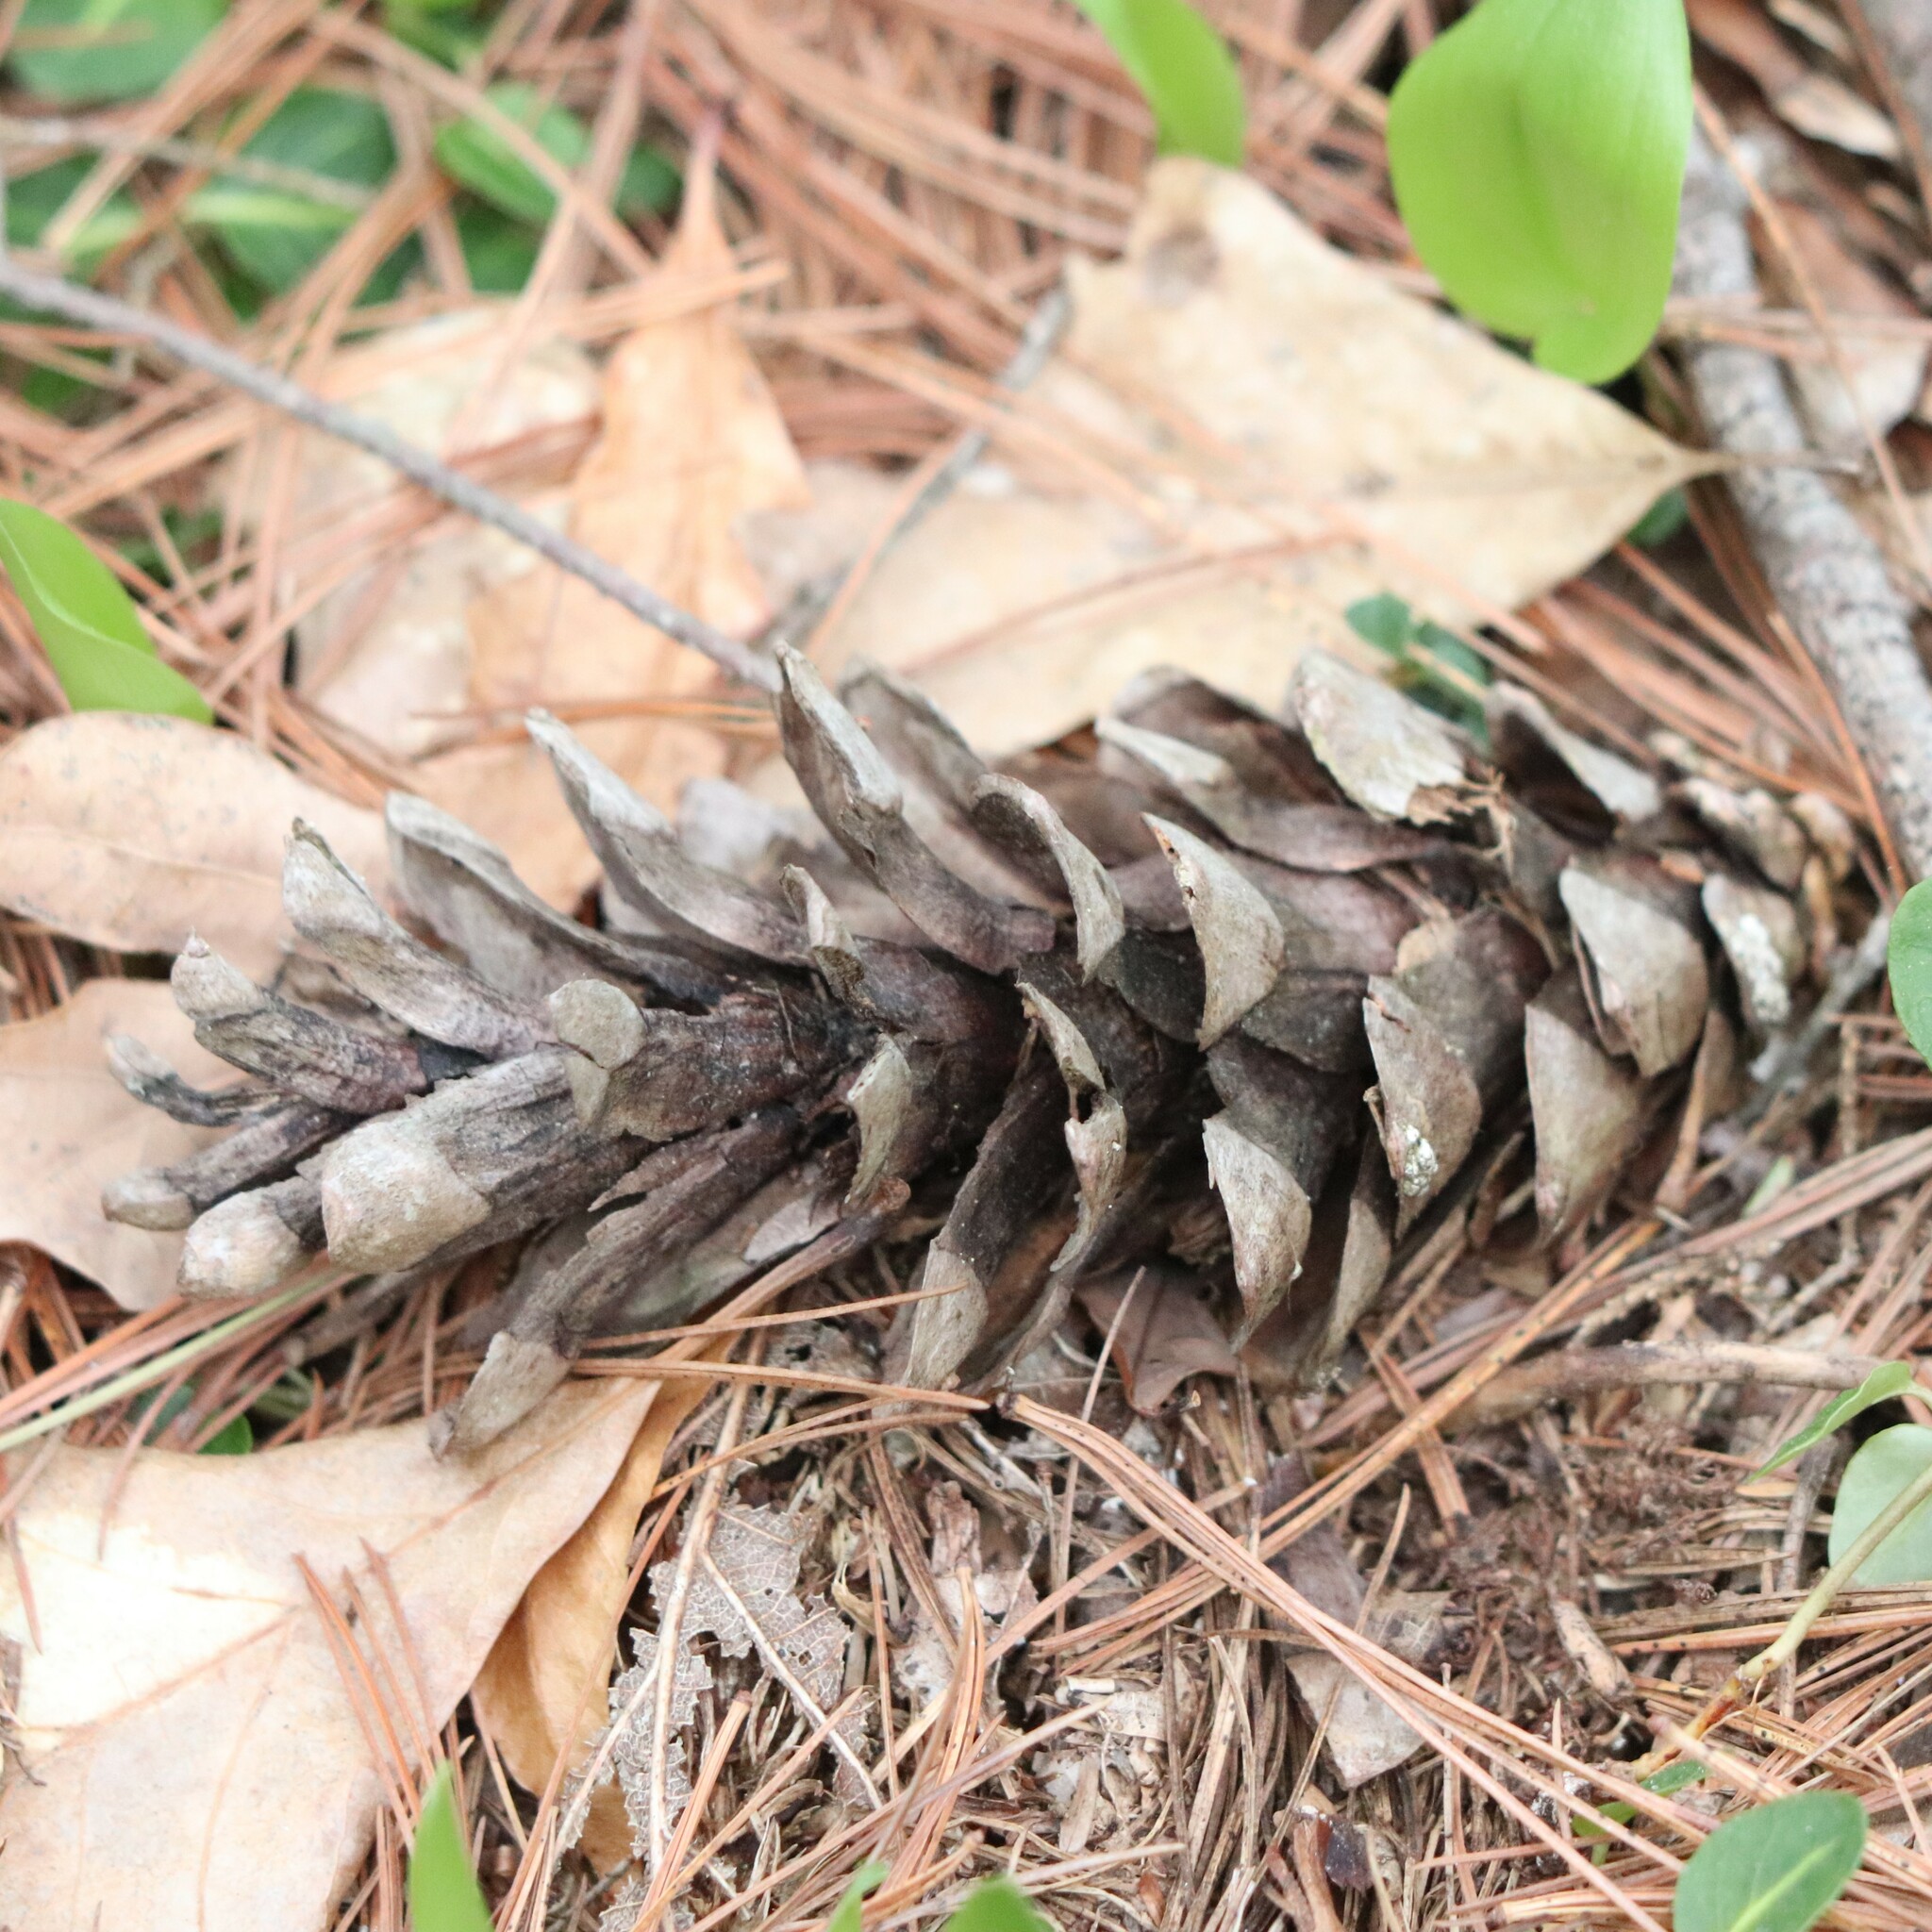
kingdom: Plantae
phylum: Tracheophyta
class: Pinopsida
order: Pinales
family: Pinaceae
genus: Pinus
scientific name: Pinus strobus
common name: Weymouth pine
